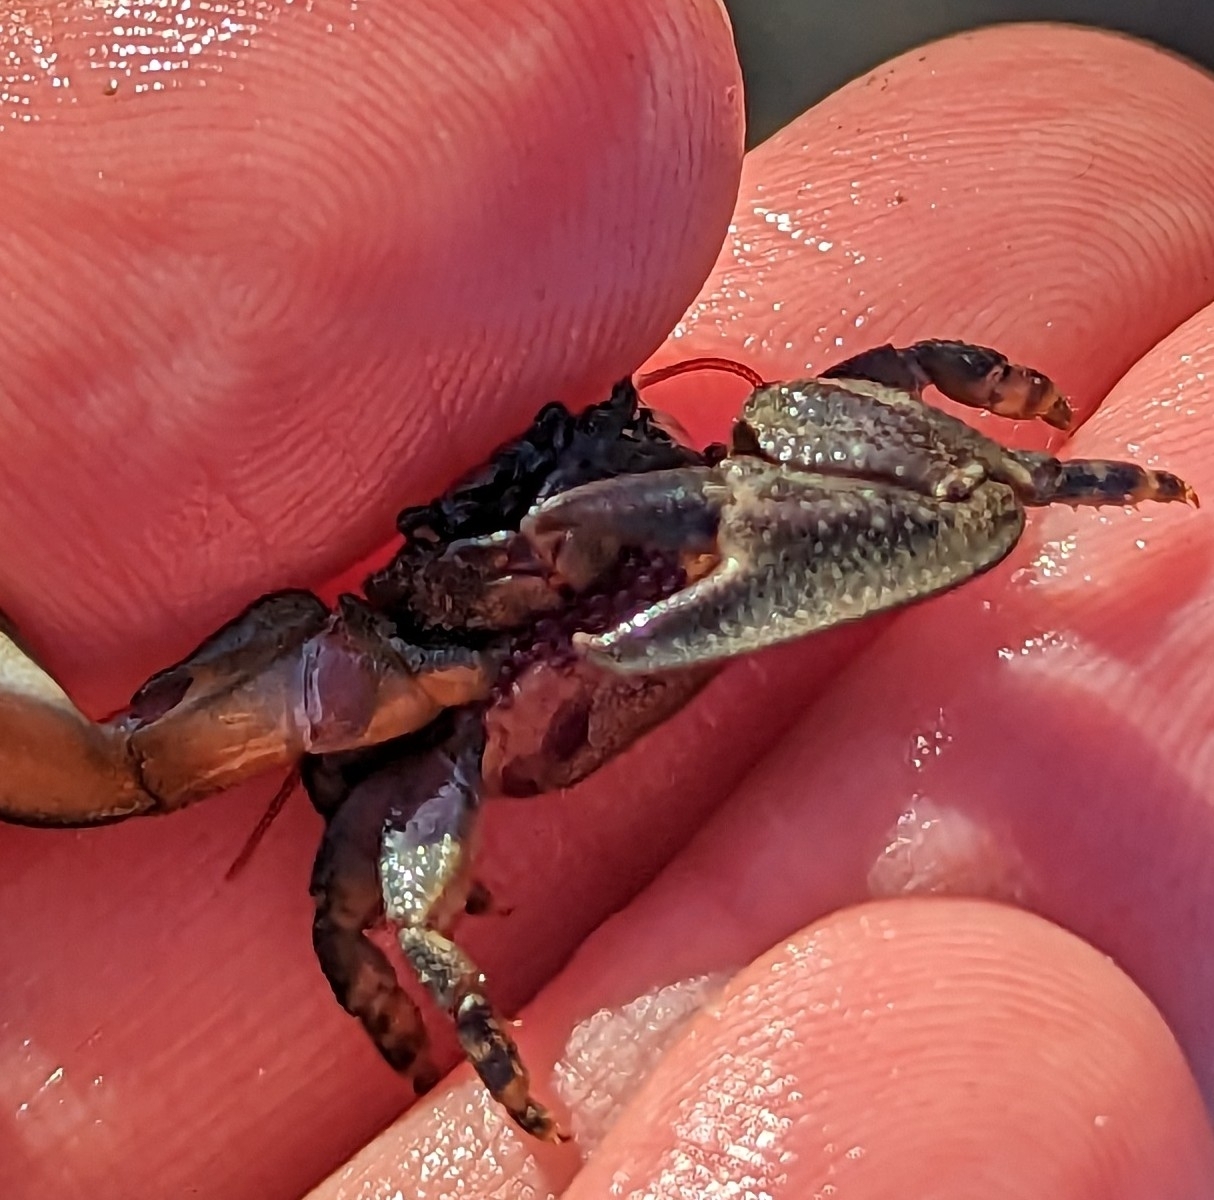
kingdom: Animalia
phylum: Arthropoda
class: Malacostraca
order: Decapoda
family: Porcellanidae
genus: Petrolisthes
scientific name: Petrolisthes cinctipes
